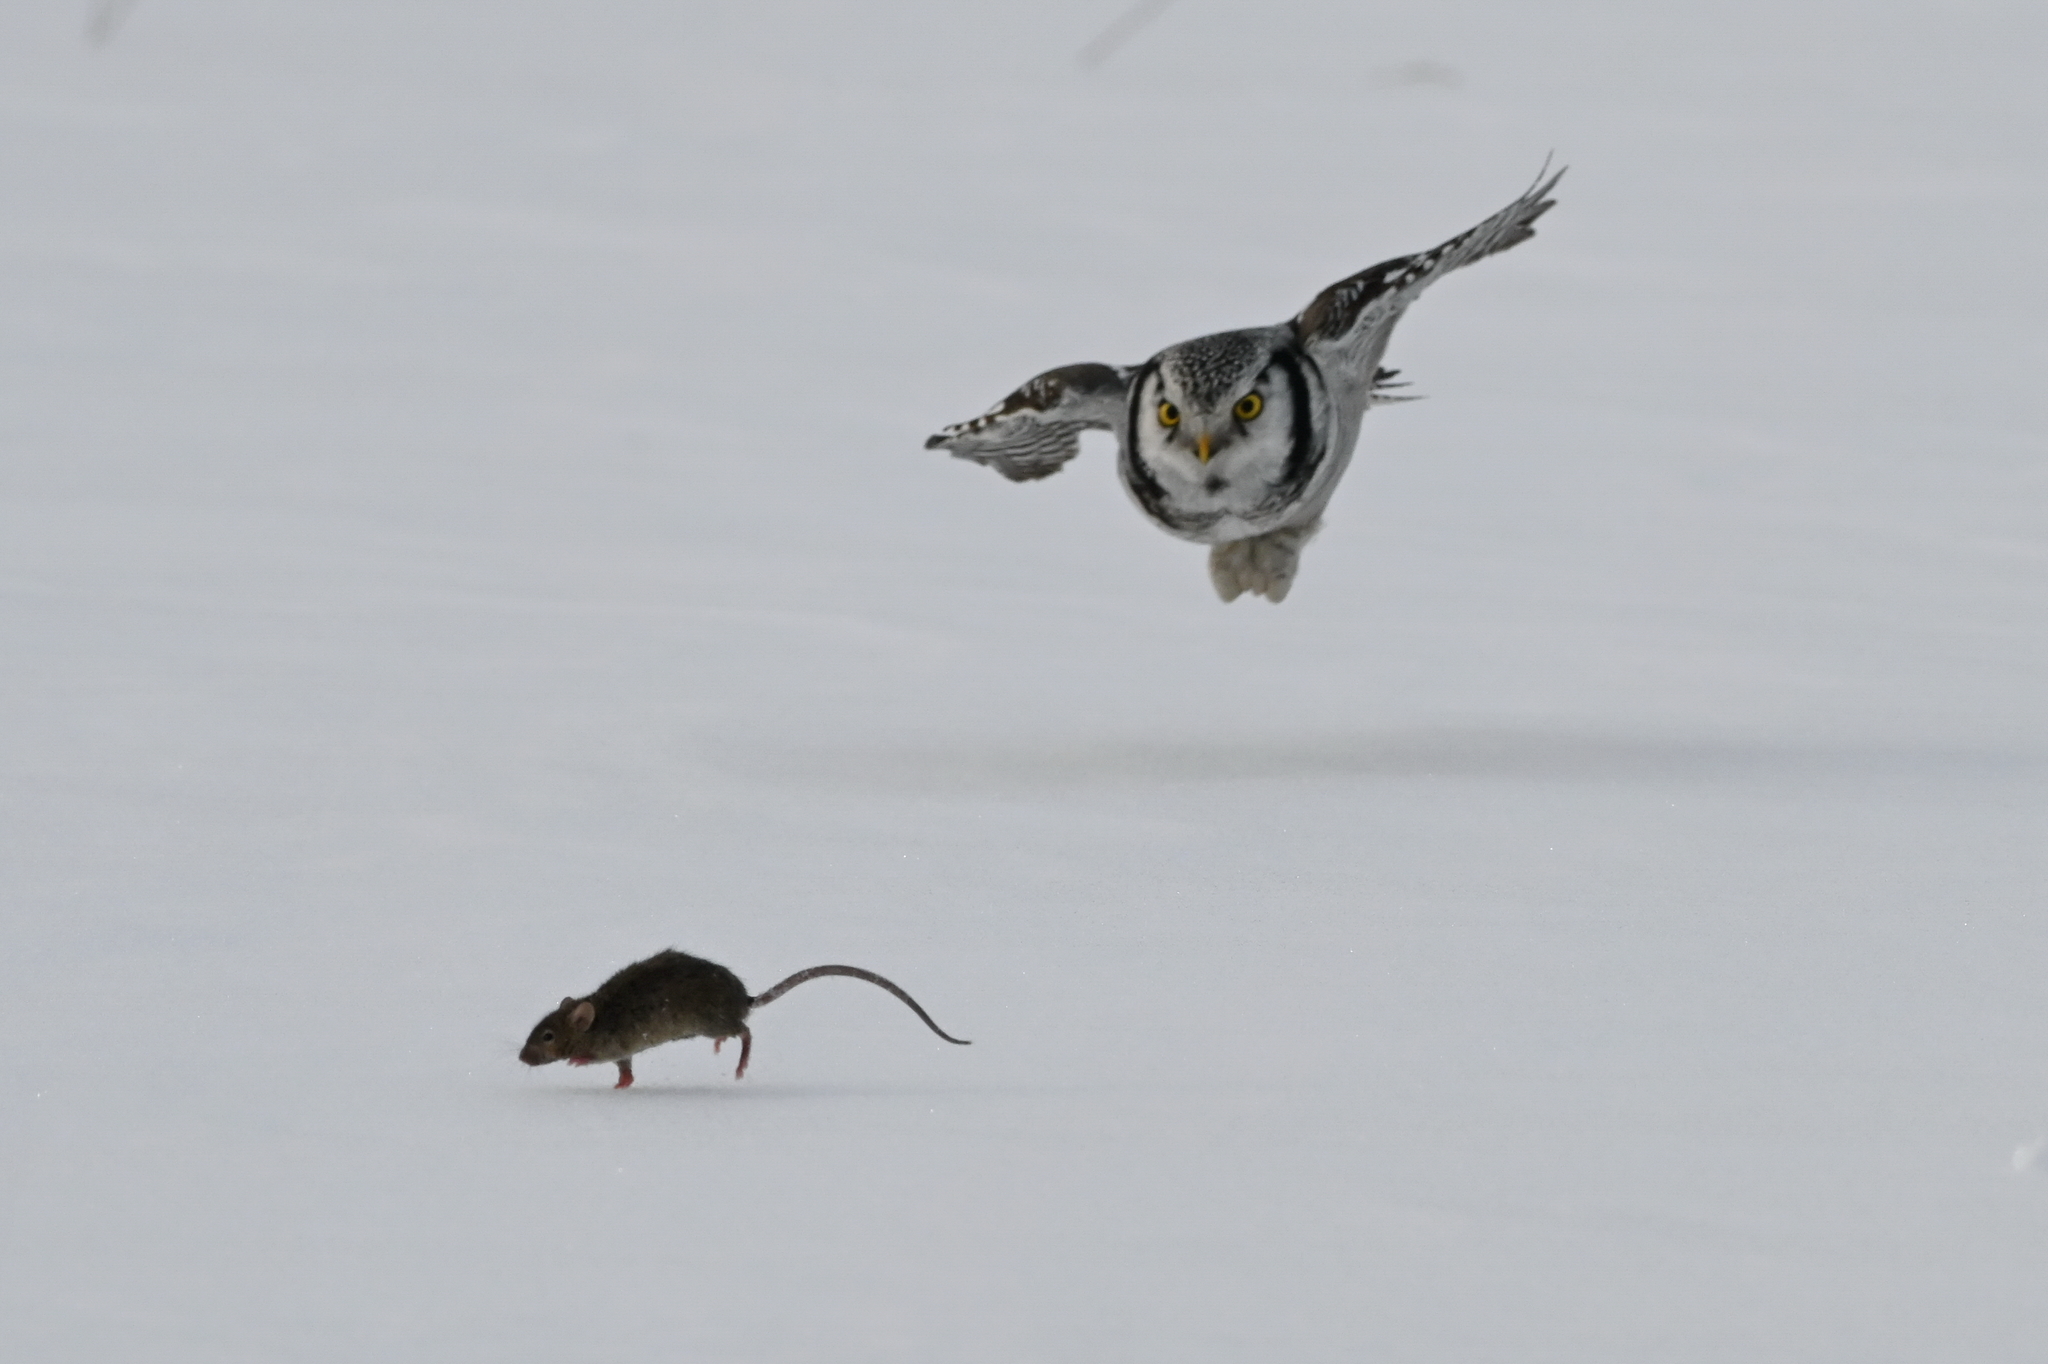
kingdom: Animalia
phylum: Chordata
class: Aves
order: Strigiformes
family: Strigidae
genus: Surnia
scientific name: Surnia ulula
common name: Northern hawk-owl
